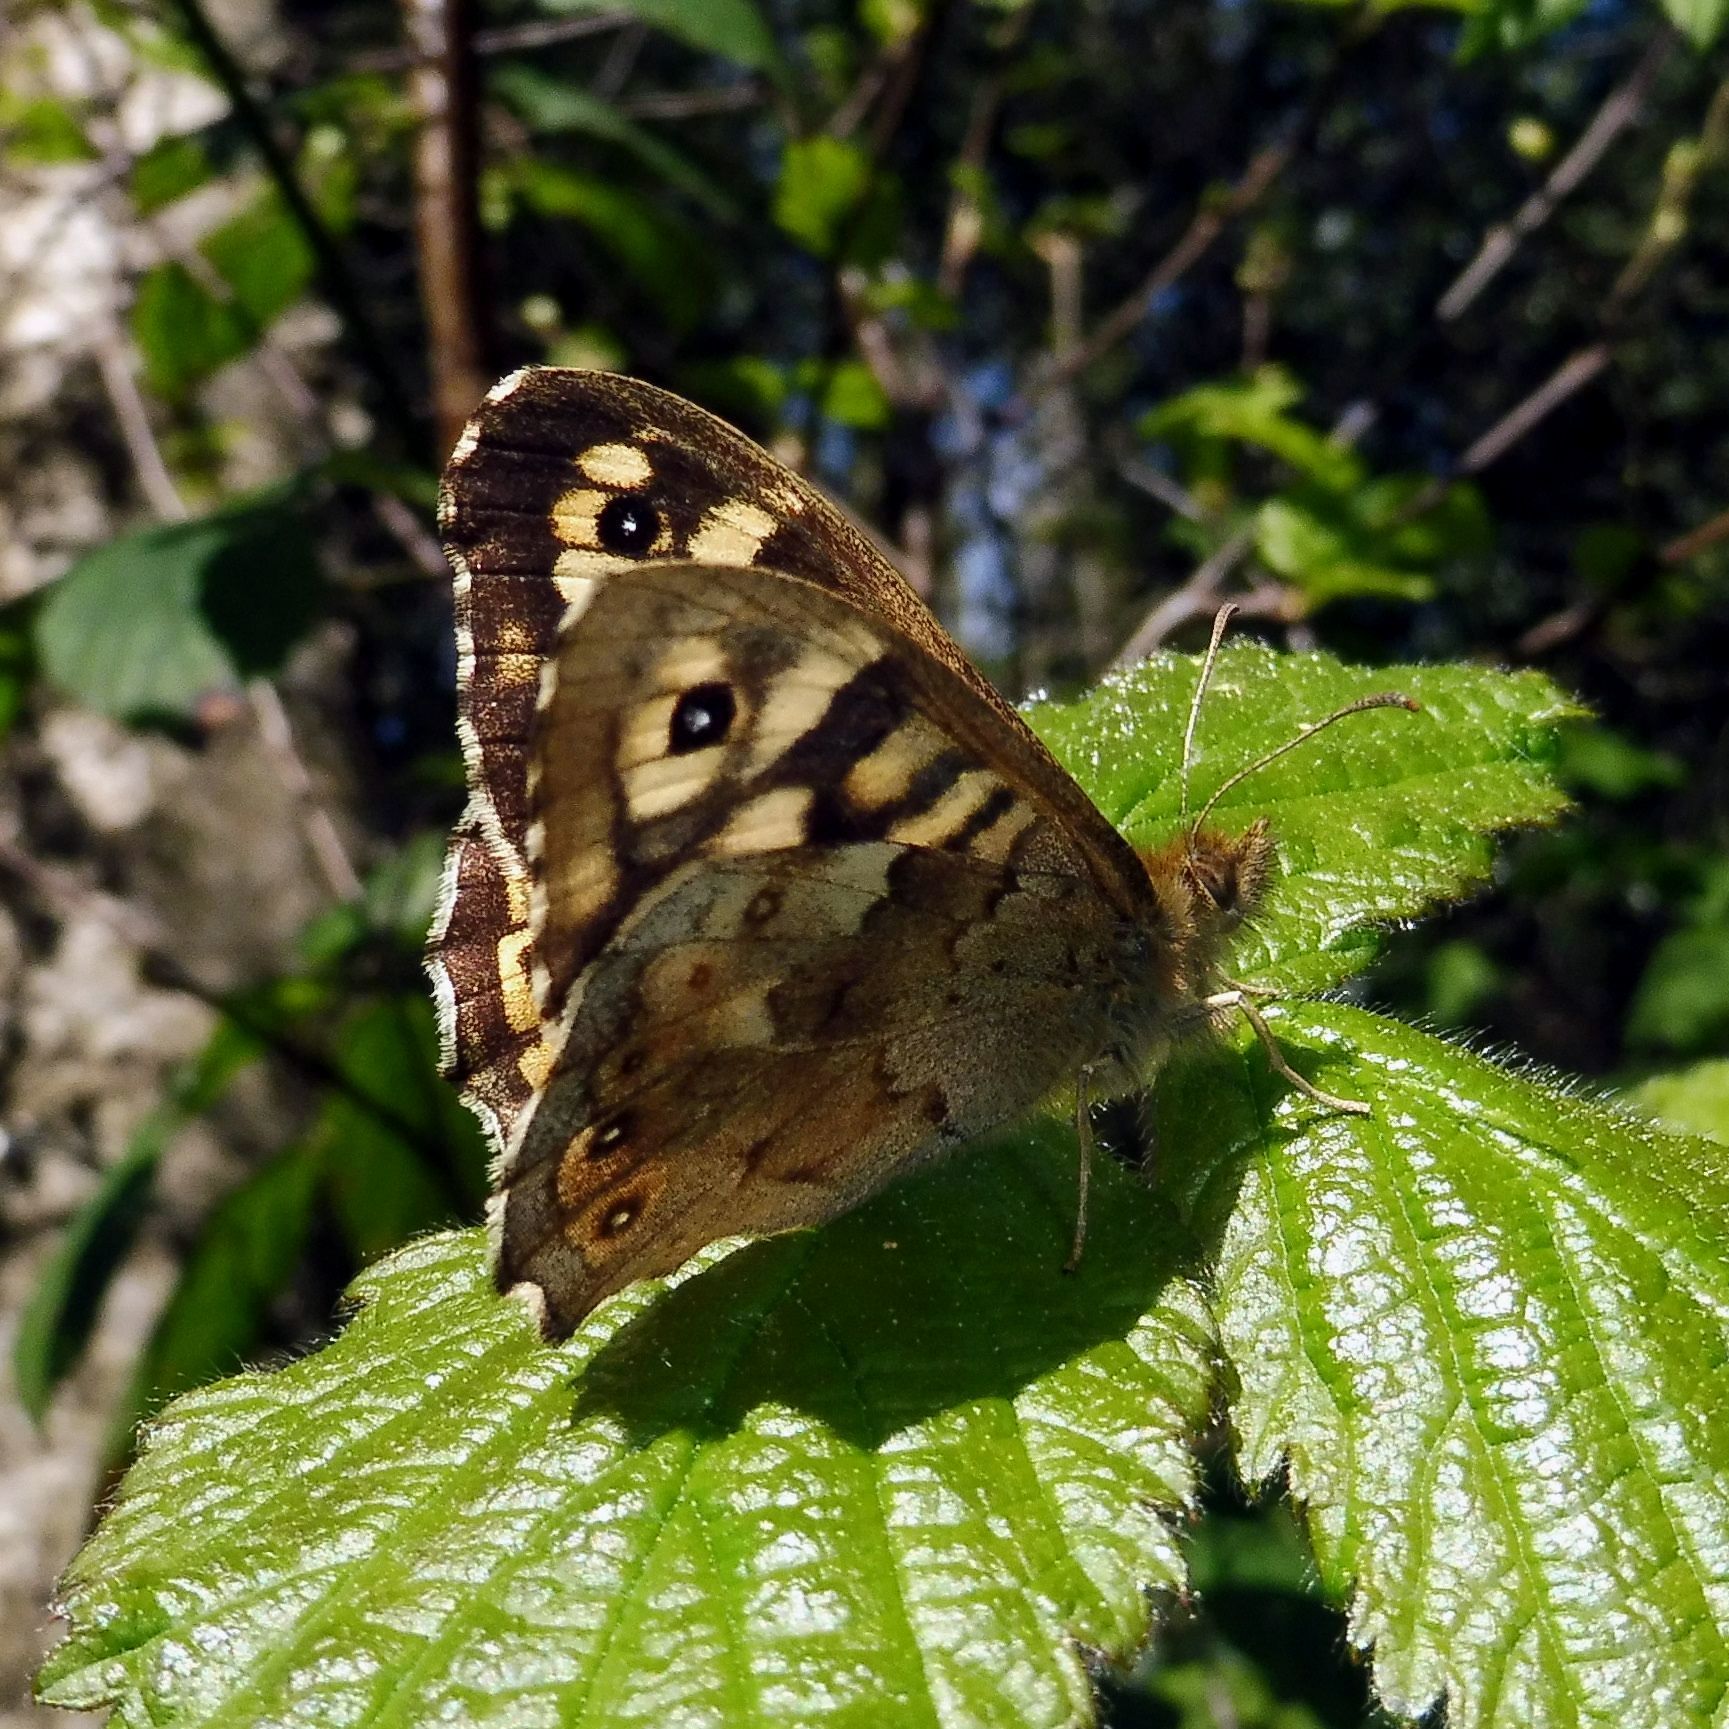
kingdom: Animalia
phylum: Arthropoda
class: Insecta
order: Lepidoptera
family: Nymphalidae
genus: Pararge
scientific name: Pararge aegeria
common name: Speckled wood
